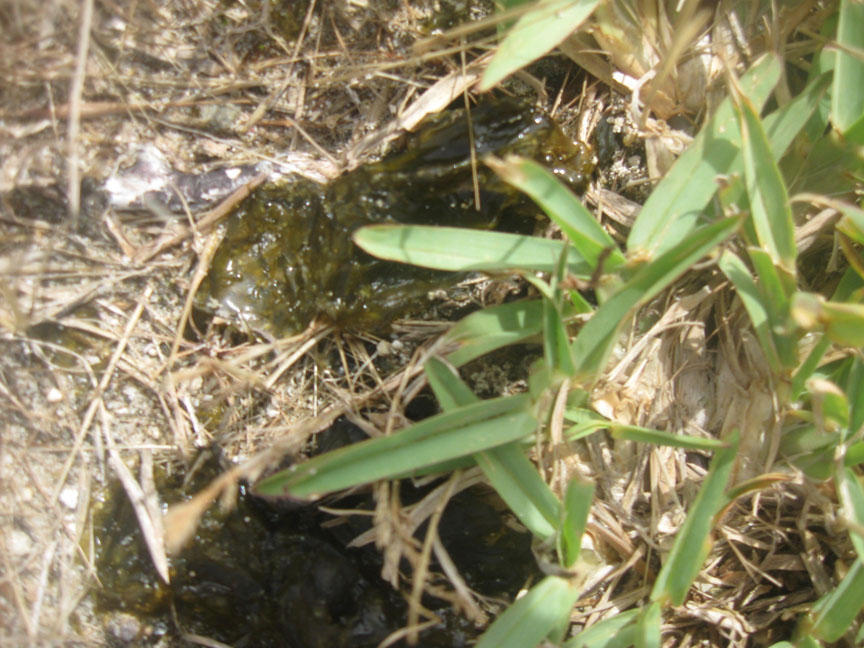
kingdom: Bacteria
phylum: Cyanobacteria
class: Cyanobacteriia
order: Cyanobacteriales
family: Nostocaceae
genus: Nostoc
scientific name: Nostoc commune
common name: Star jelly
